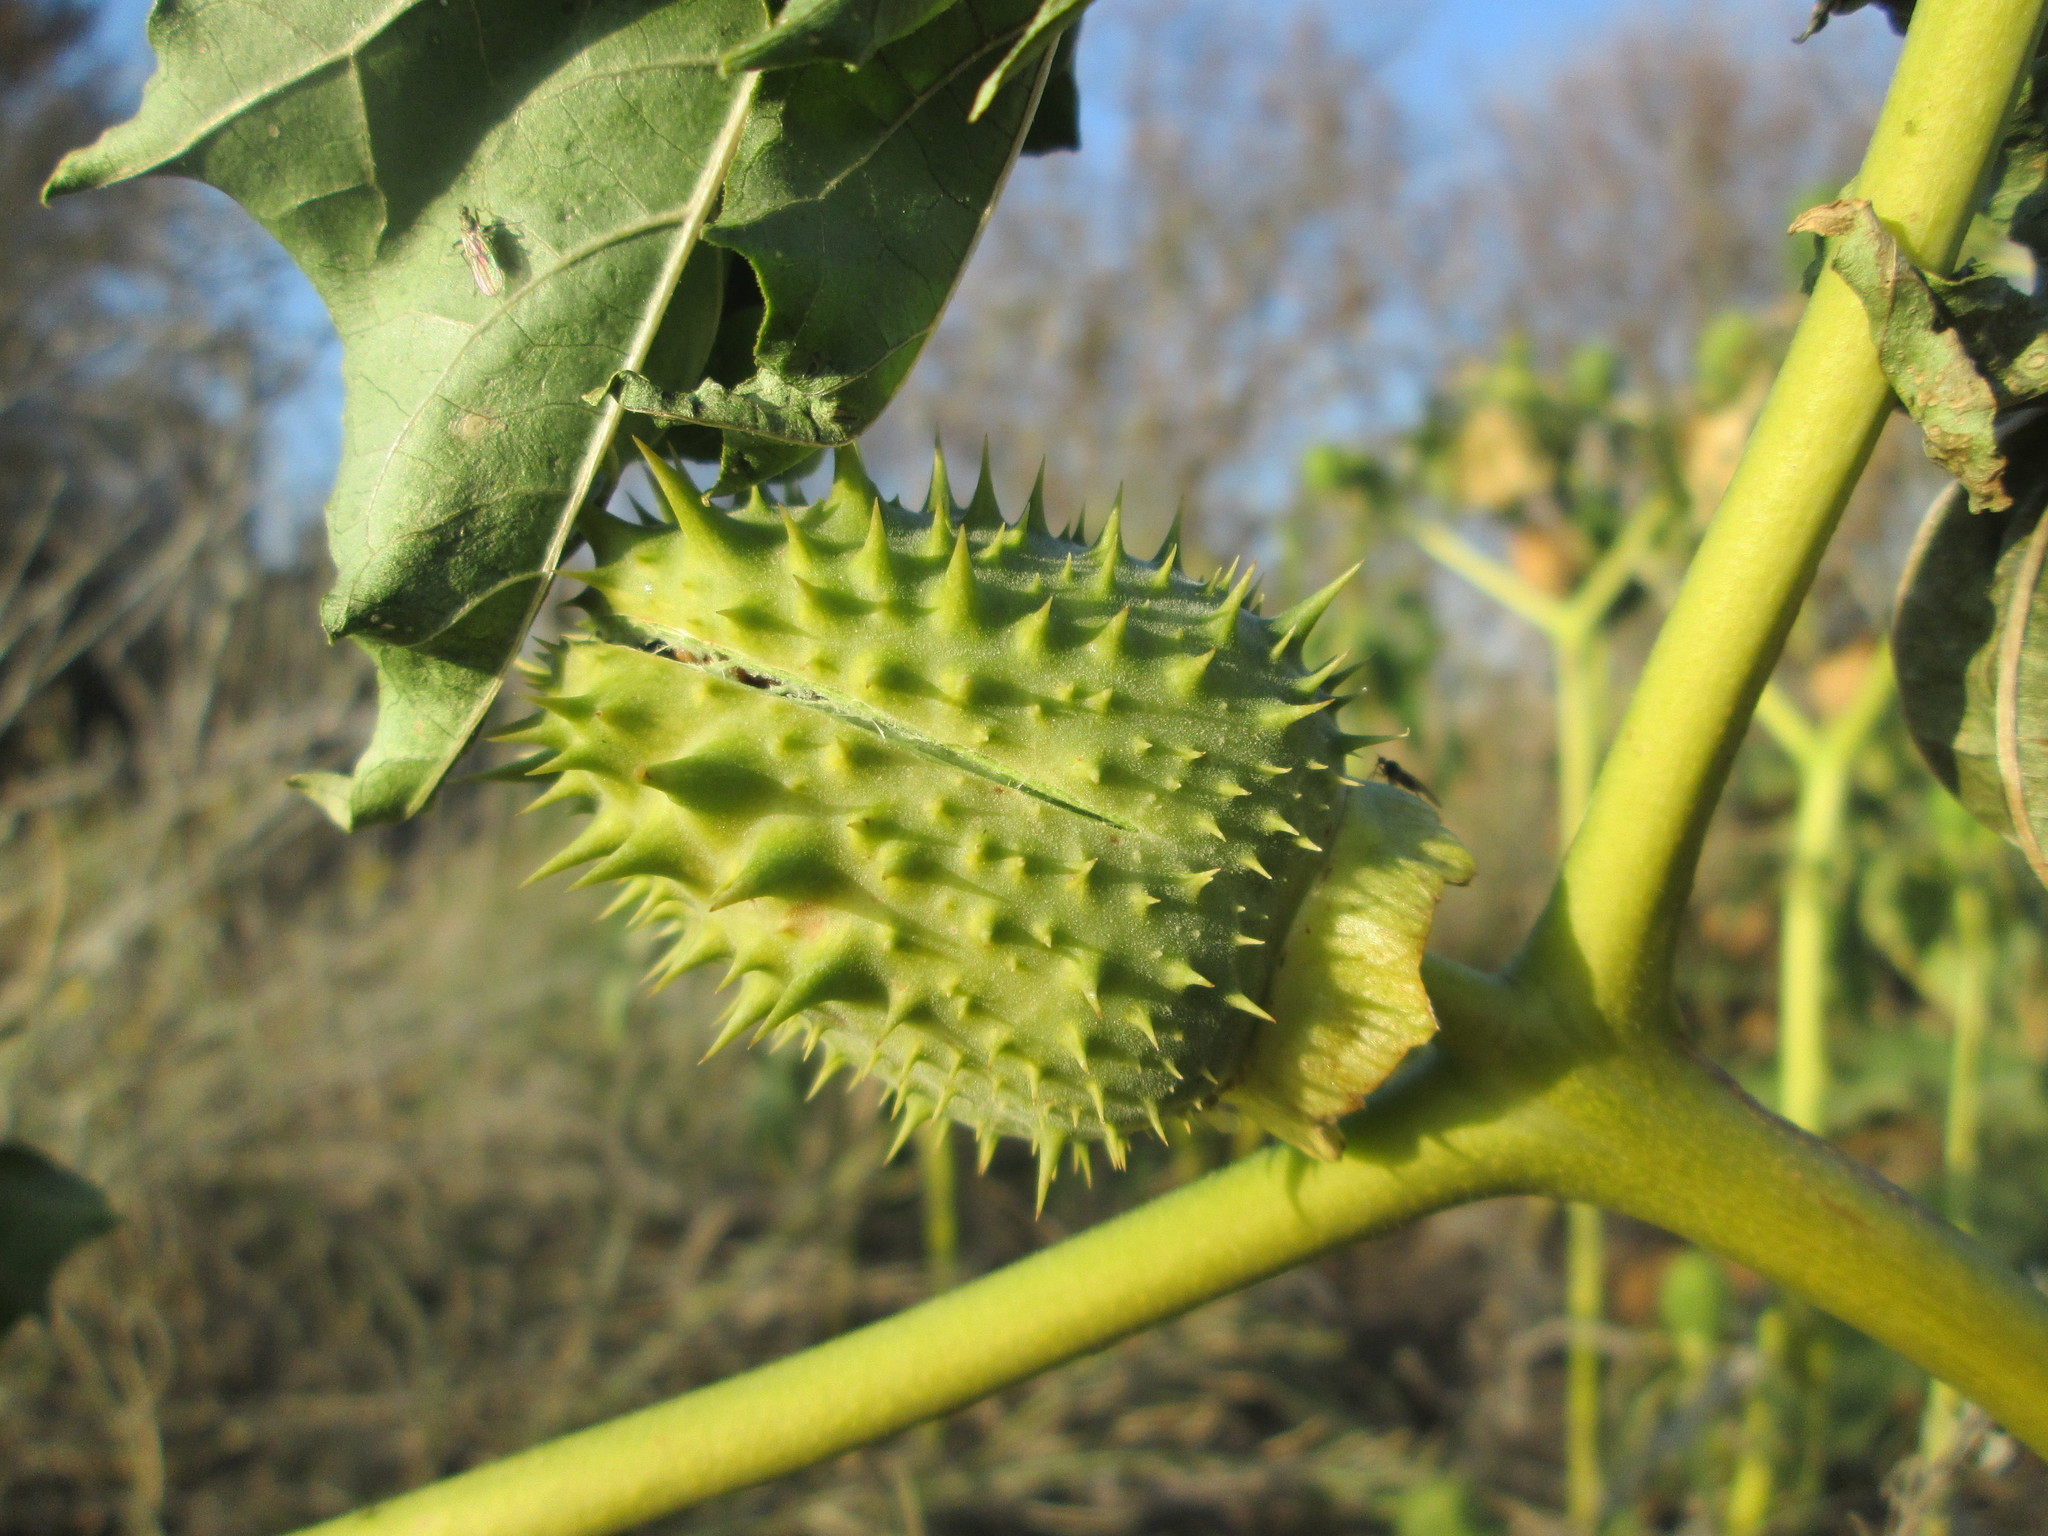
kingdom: Plantae
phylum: Tracheophyta
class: Magnoliopsida
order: Solanales
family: Solanaceae
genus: Datura
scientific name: Datura stramonium
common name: Thorn-apple
